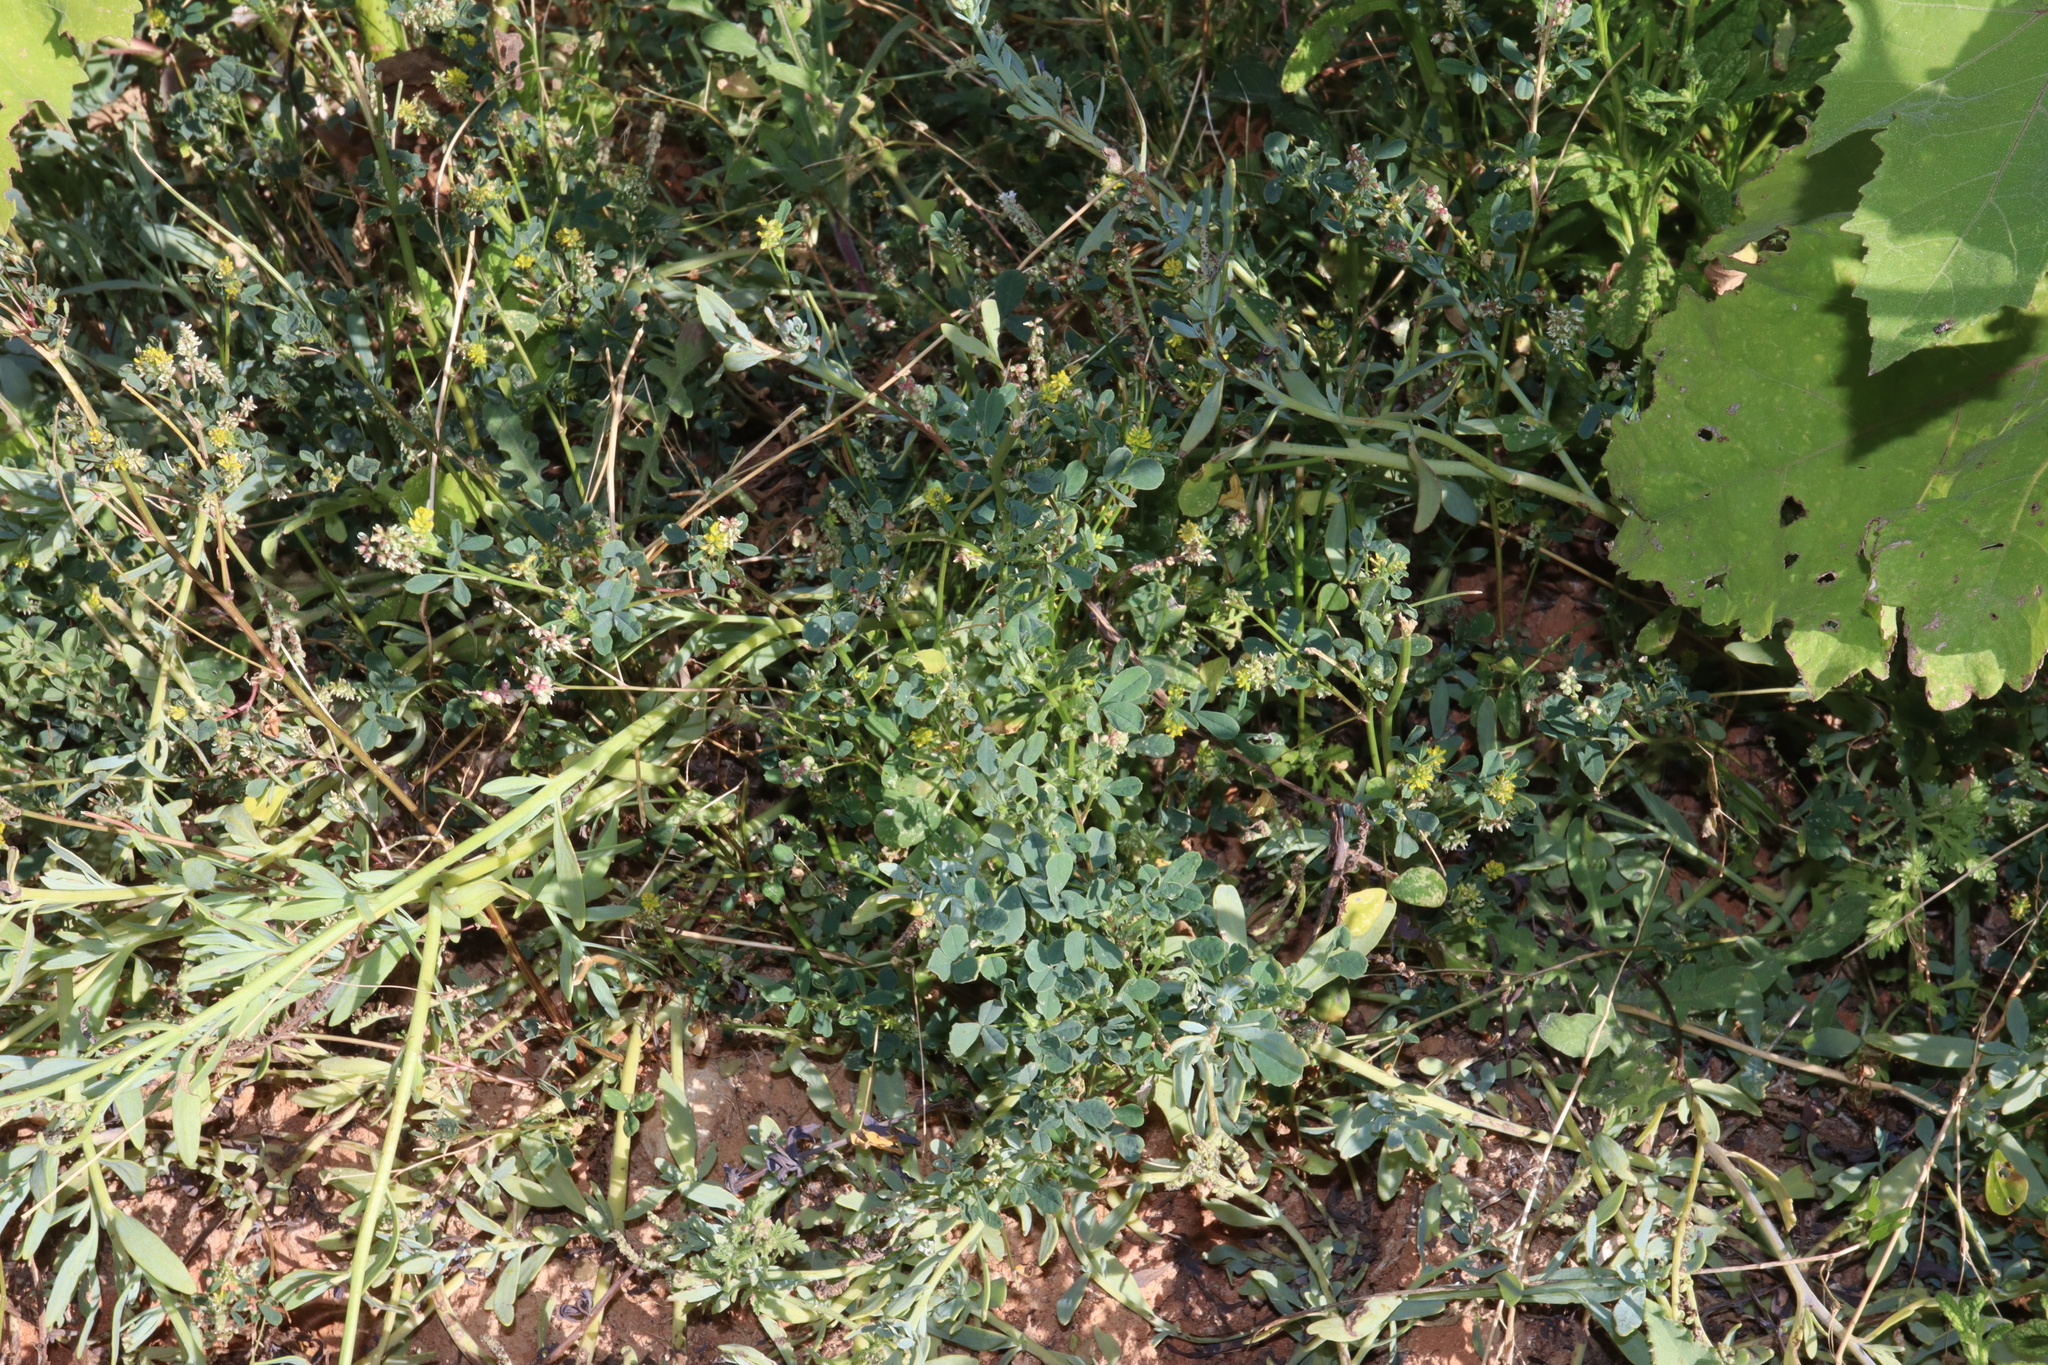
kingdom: Plantae
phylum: Tracheophyta
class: Magnoliopsida
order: Fabales
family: Fabaceae
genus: Melilotus
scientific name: Melilotus indicus
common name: Small melilot
